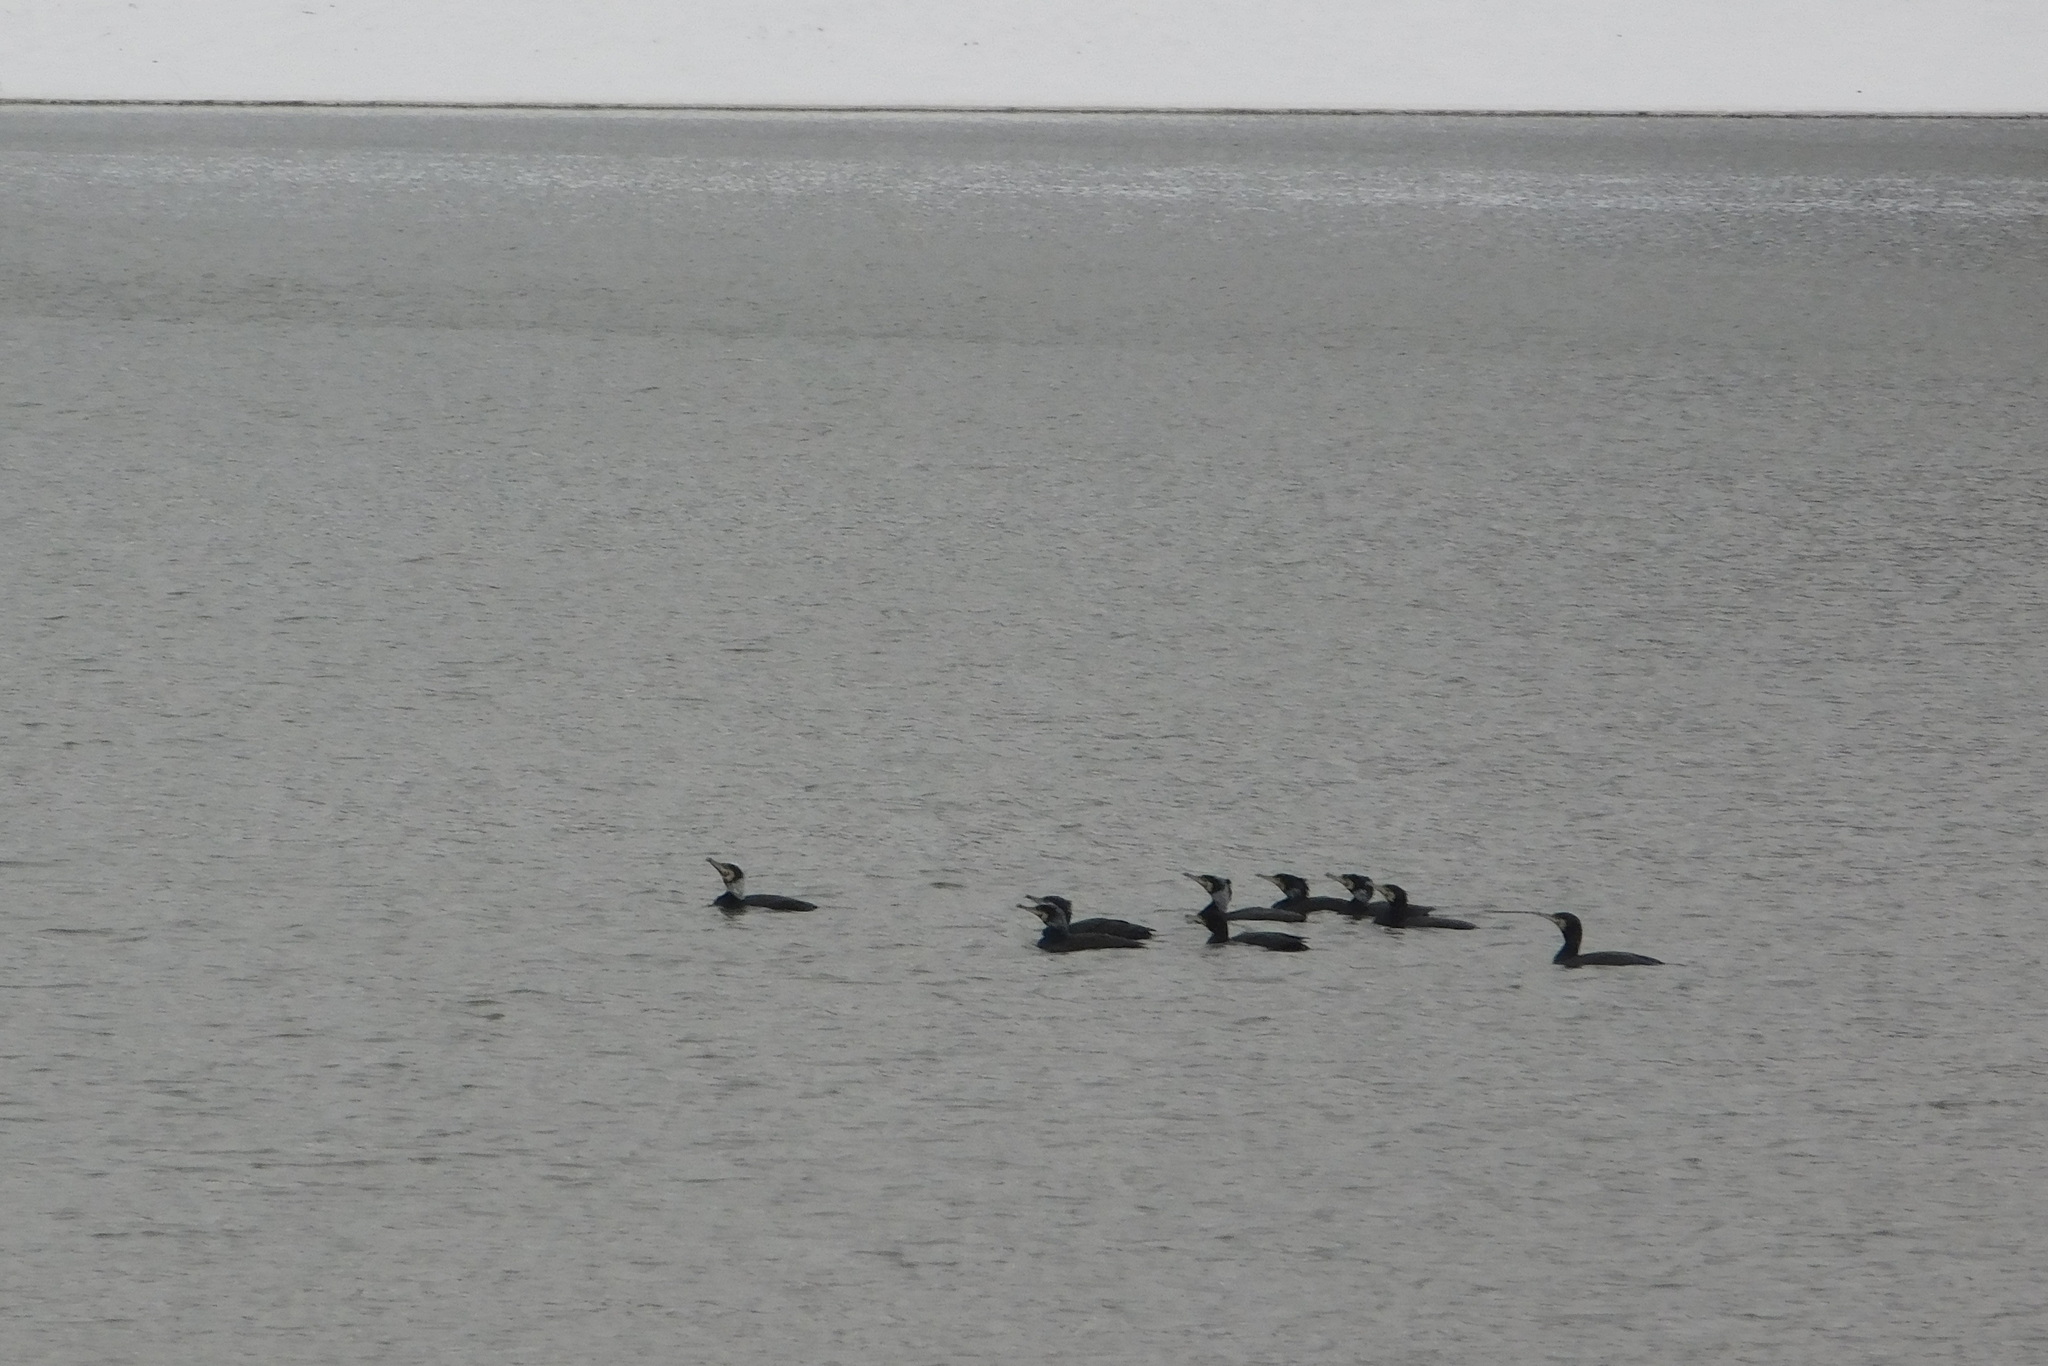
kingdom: Animalia
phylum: Chordata
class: Aves
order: Suliformes
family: Phalacrocoracidae
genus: Phalacrocorax
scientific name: Phalacrocorax carbo
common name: Great cormorant
